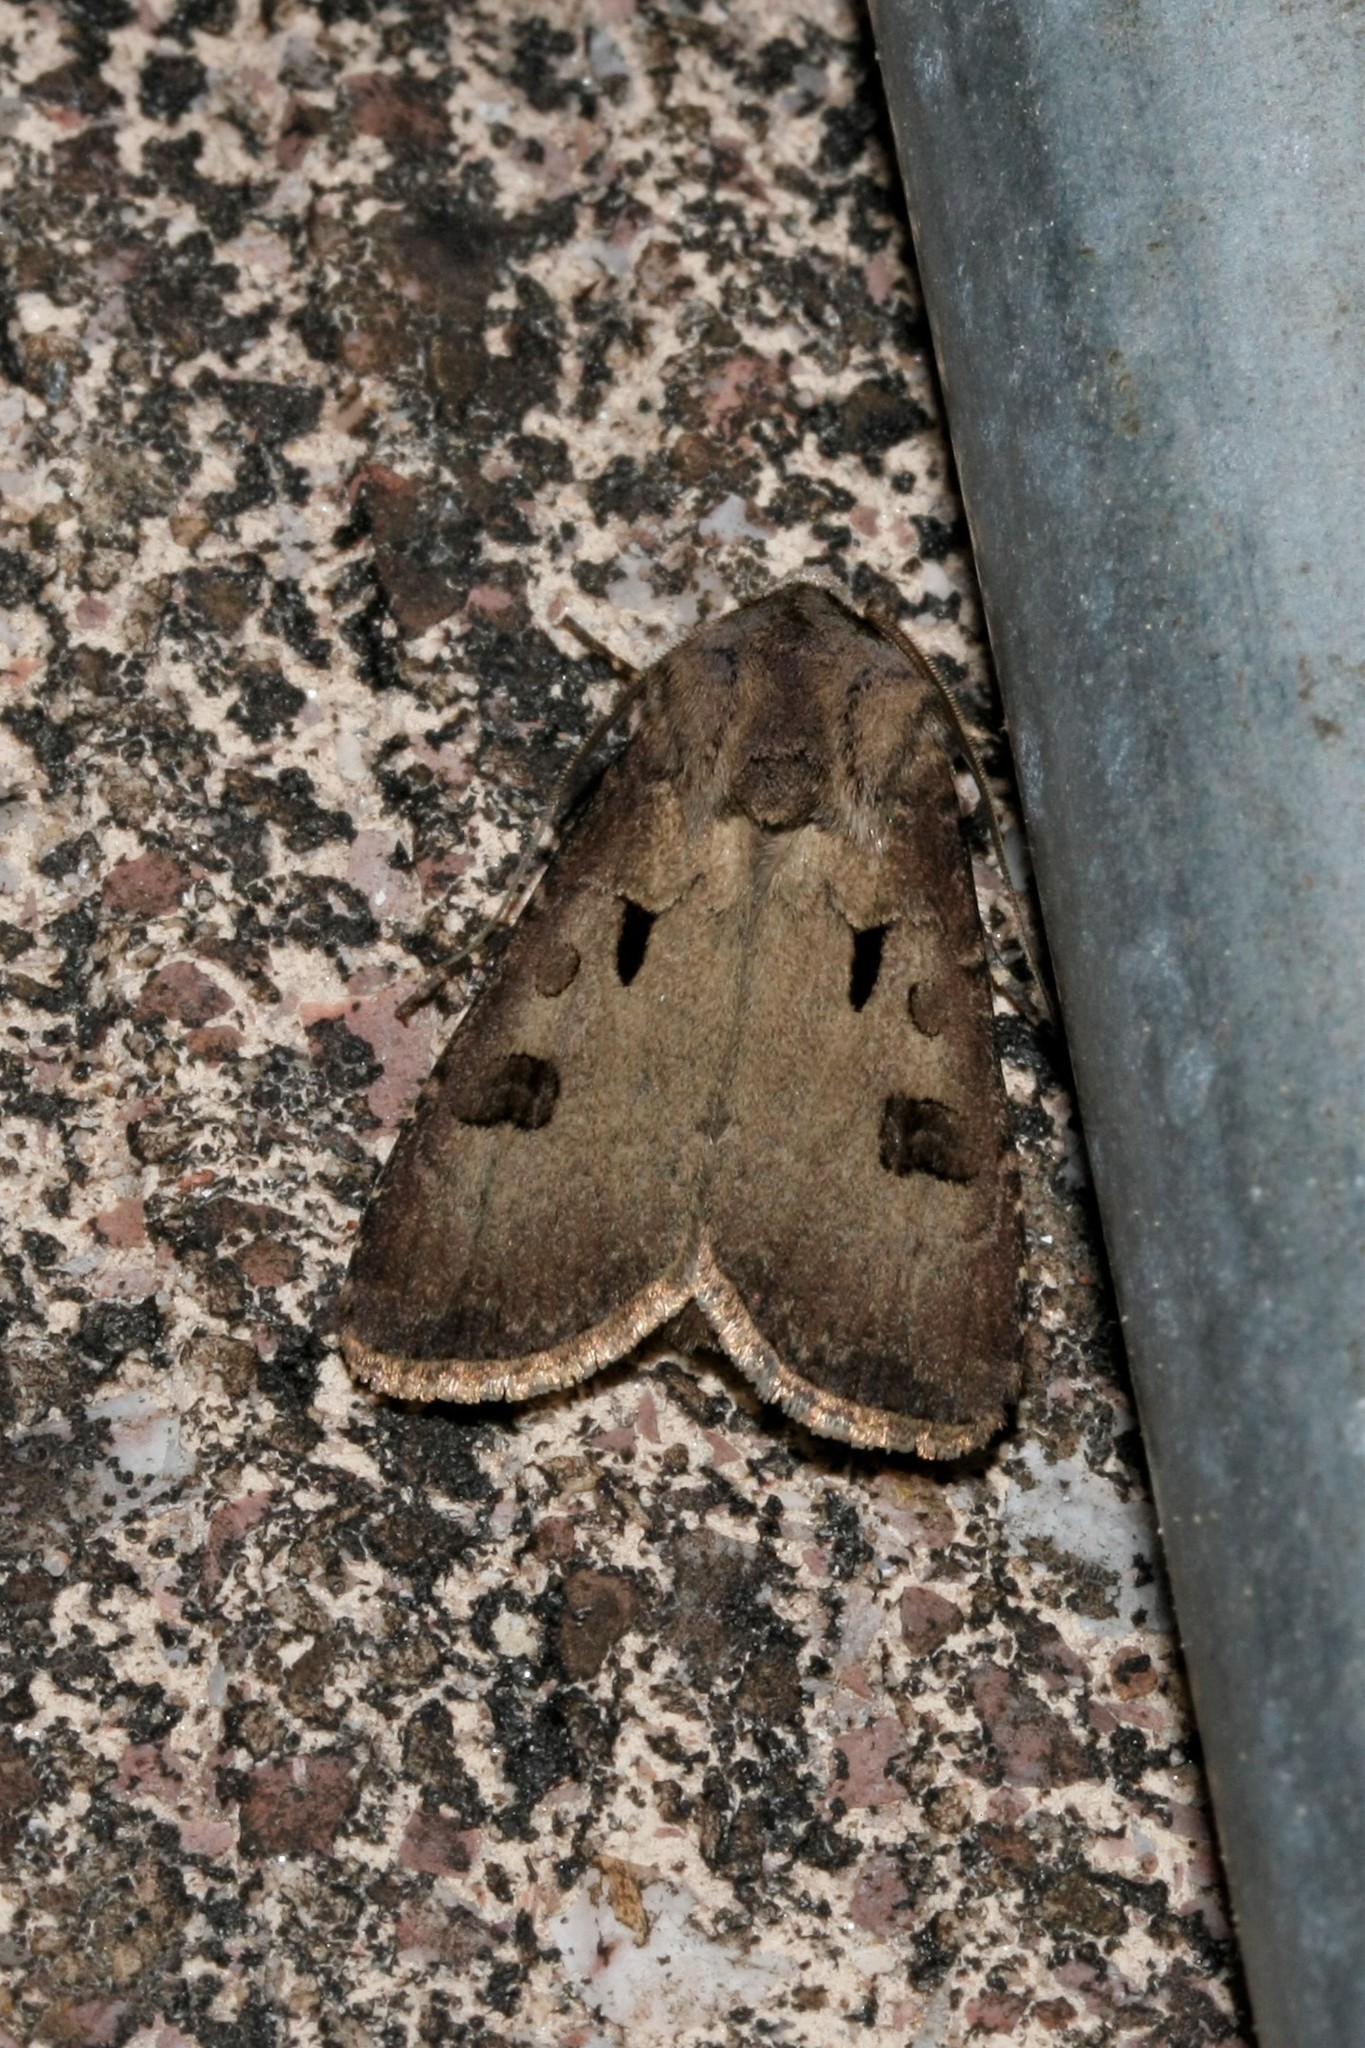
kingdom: Animalia
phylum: Arthropoda
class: Insecta
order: Lepidoptera
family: Noctuidae
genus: Agrotis
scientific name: Agrotis exclamationis
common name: Heart and dart
